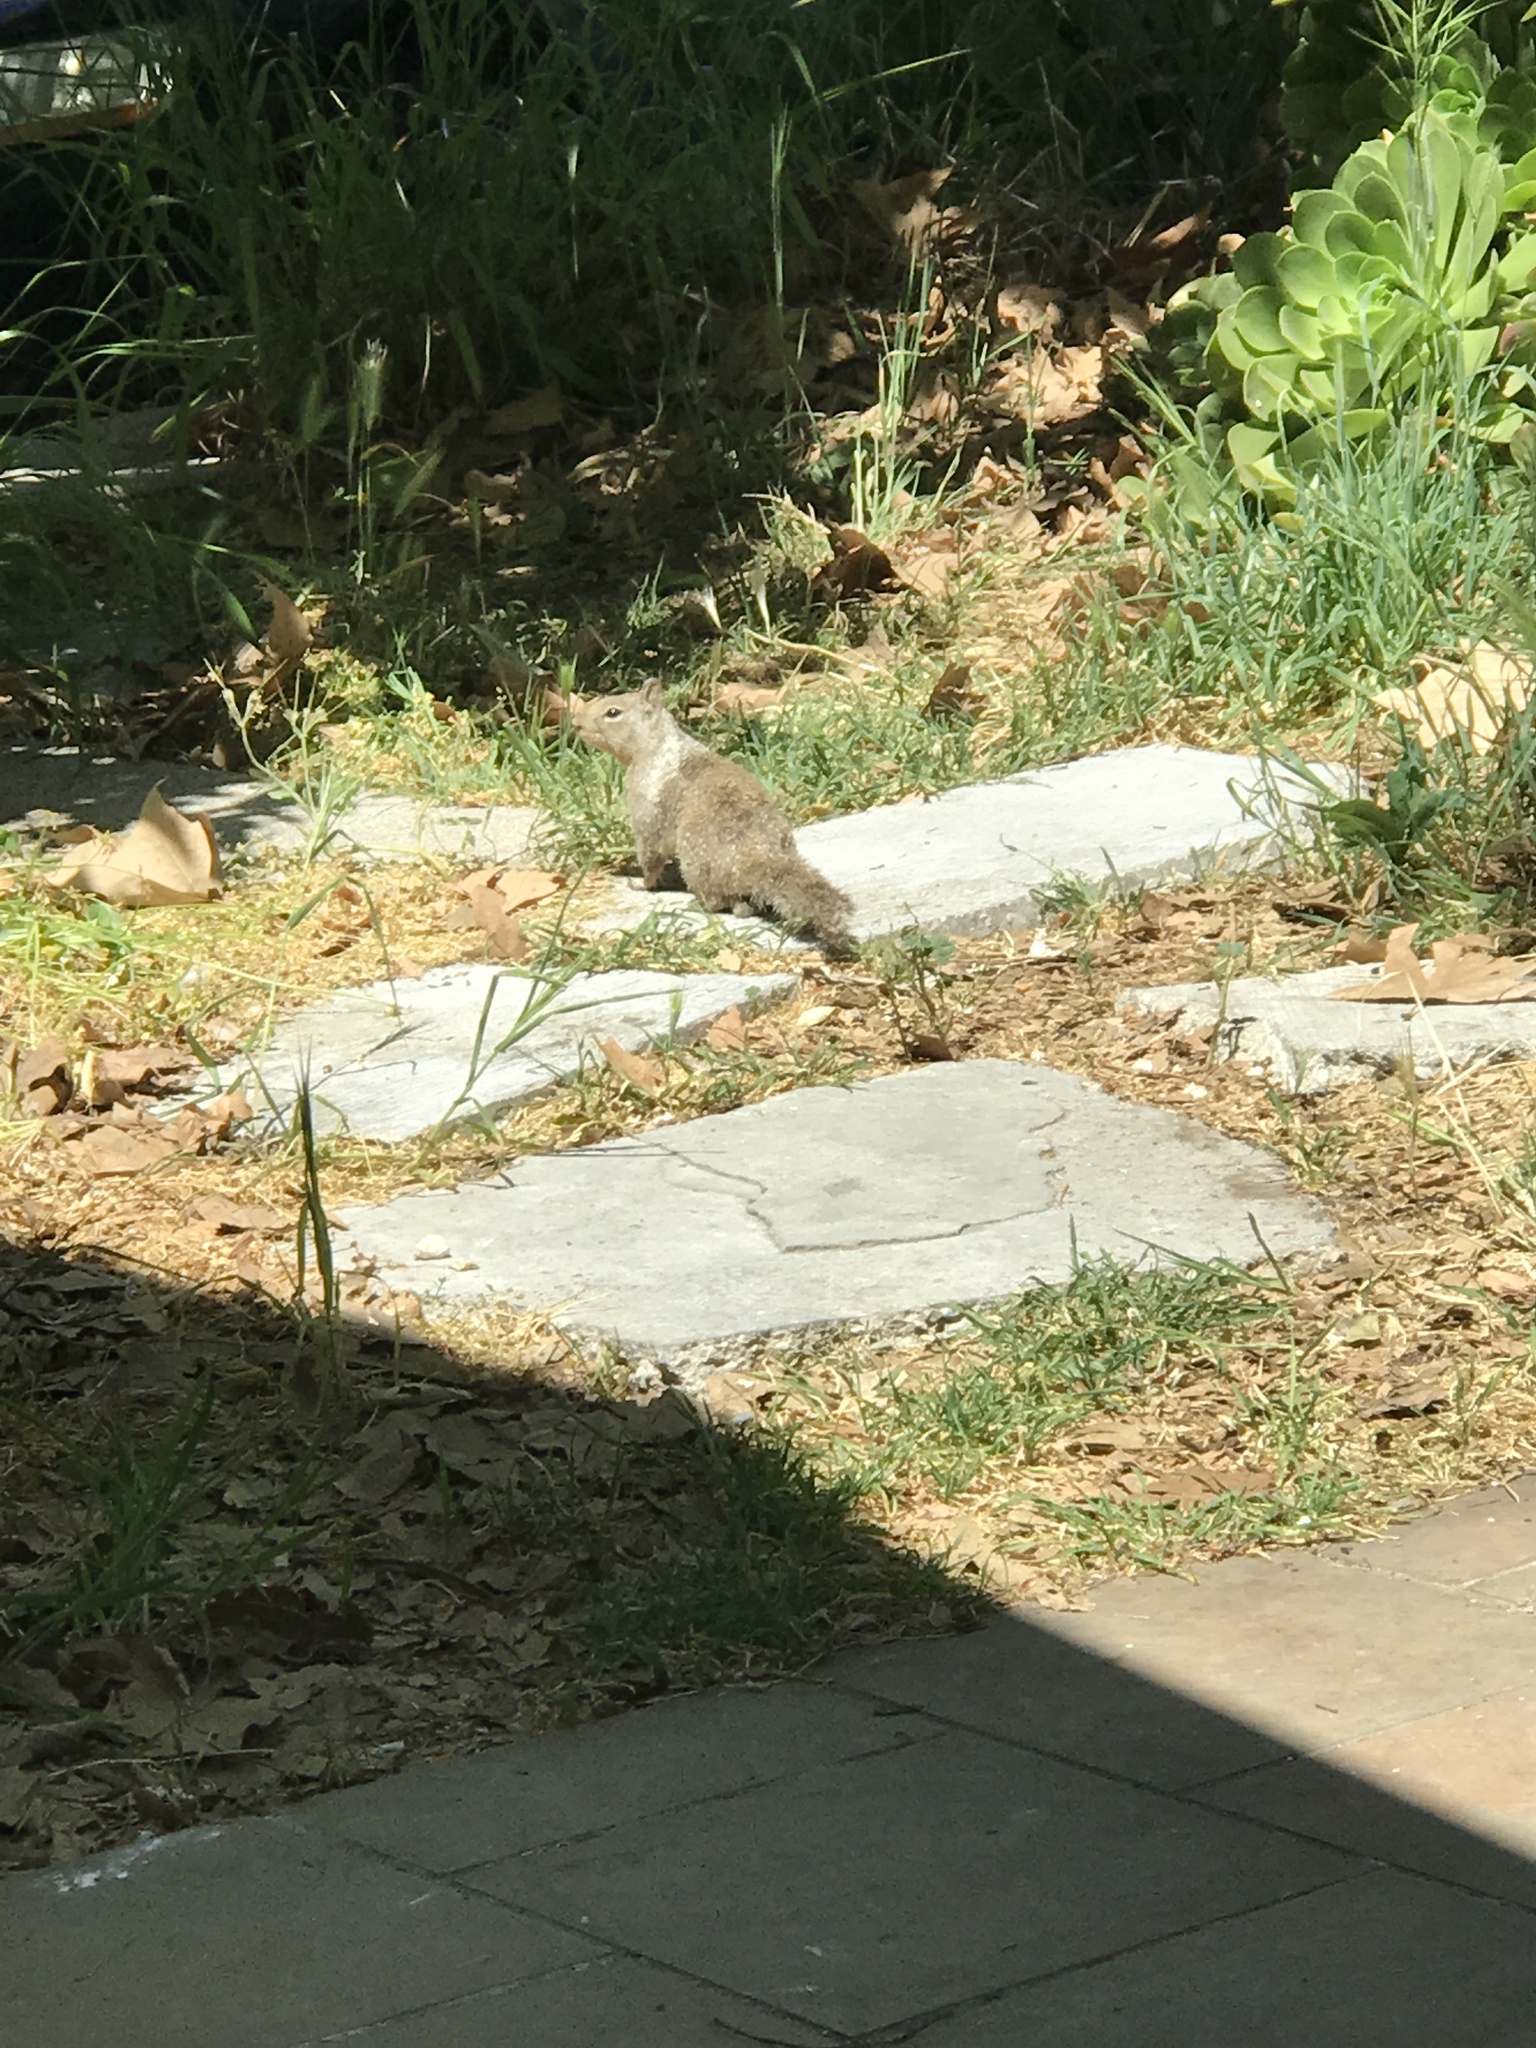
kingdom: Animalia
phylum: Chordata
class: Mammalia
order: Rodentia
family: Sciuridae
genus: Otospermophilus
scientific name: Otospermophilus beecheyi
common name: California ground squirrel
